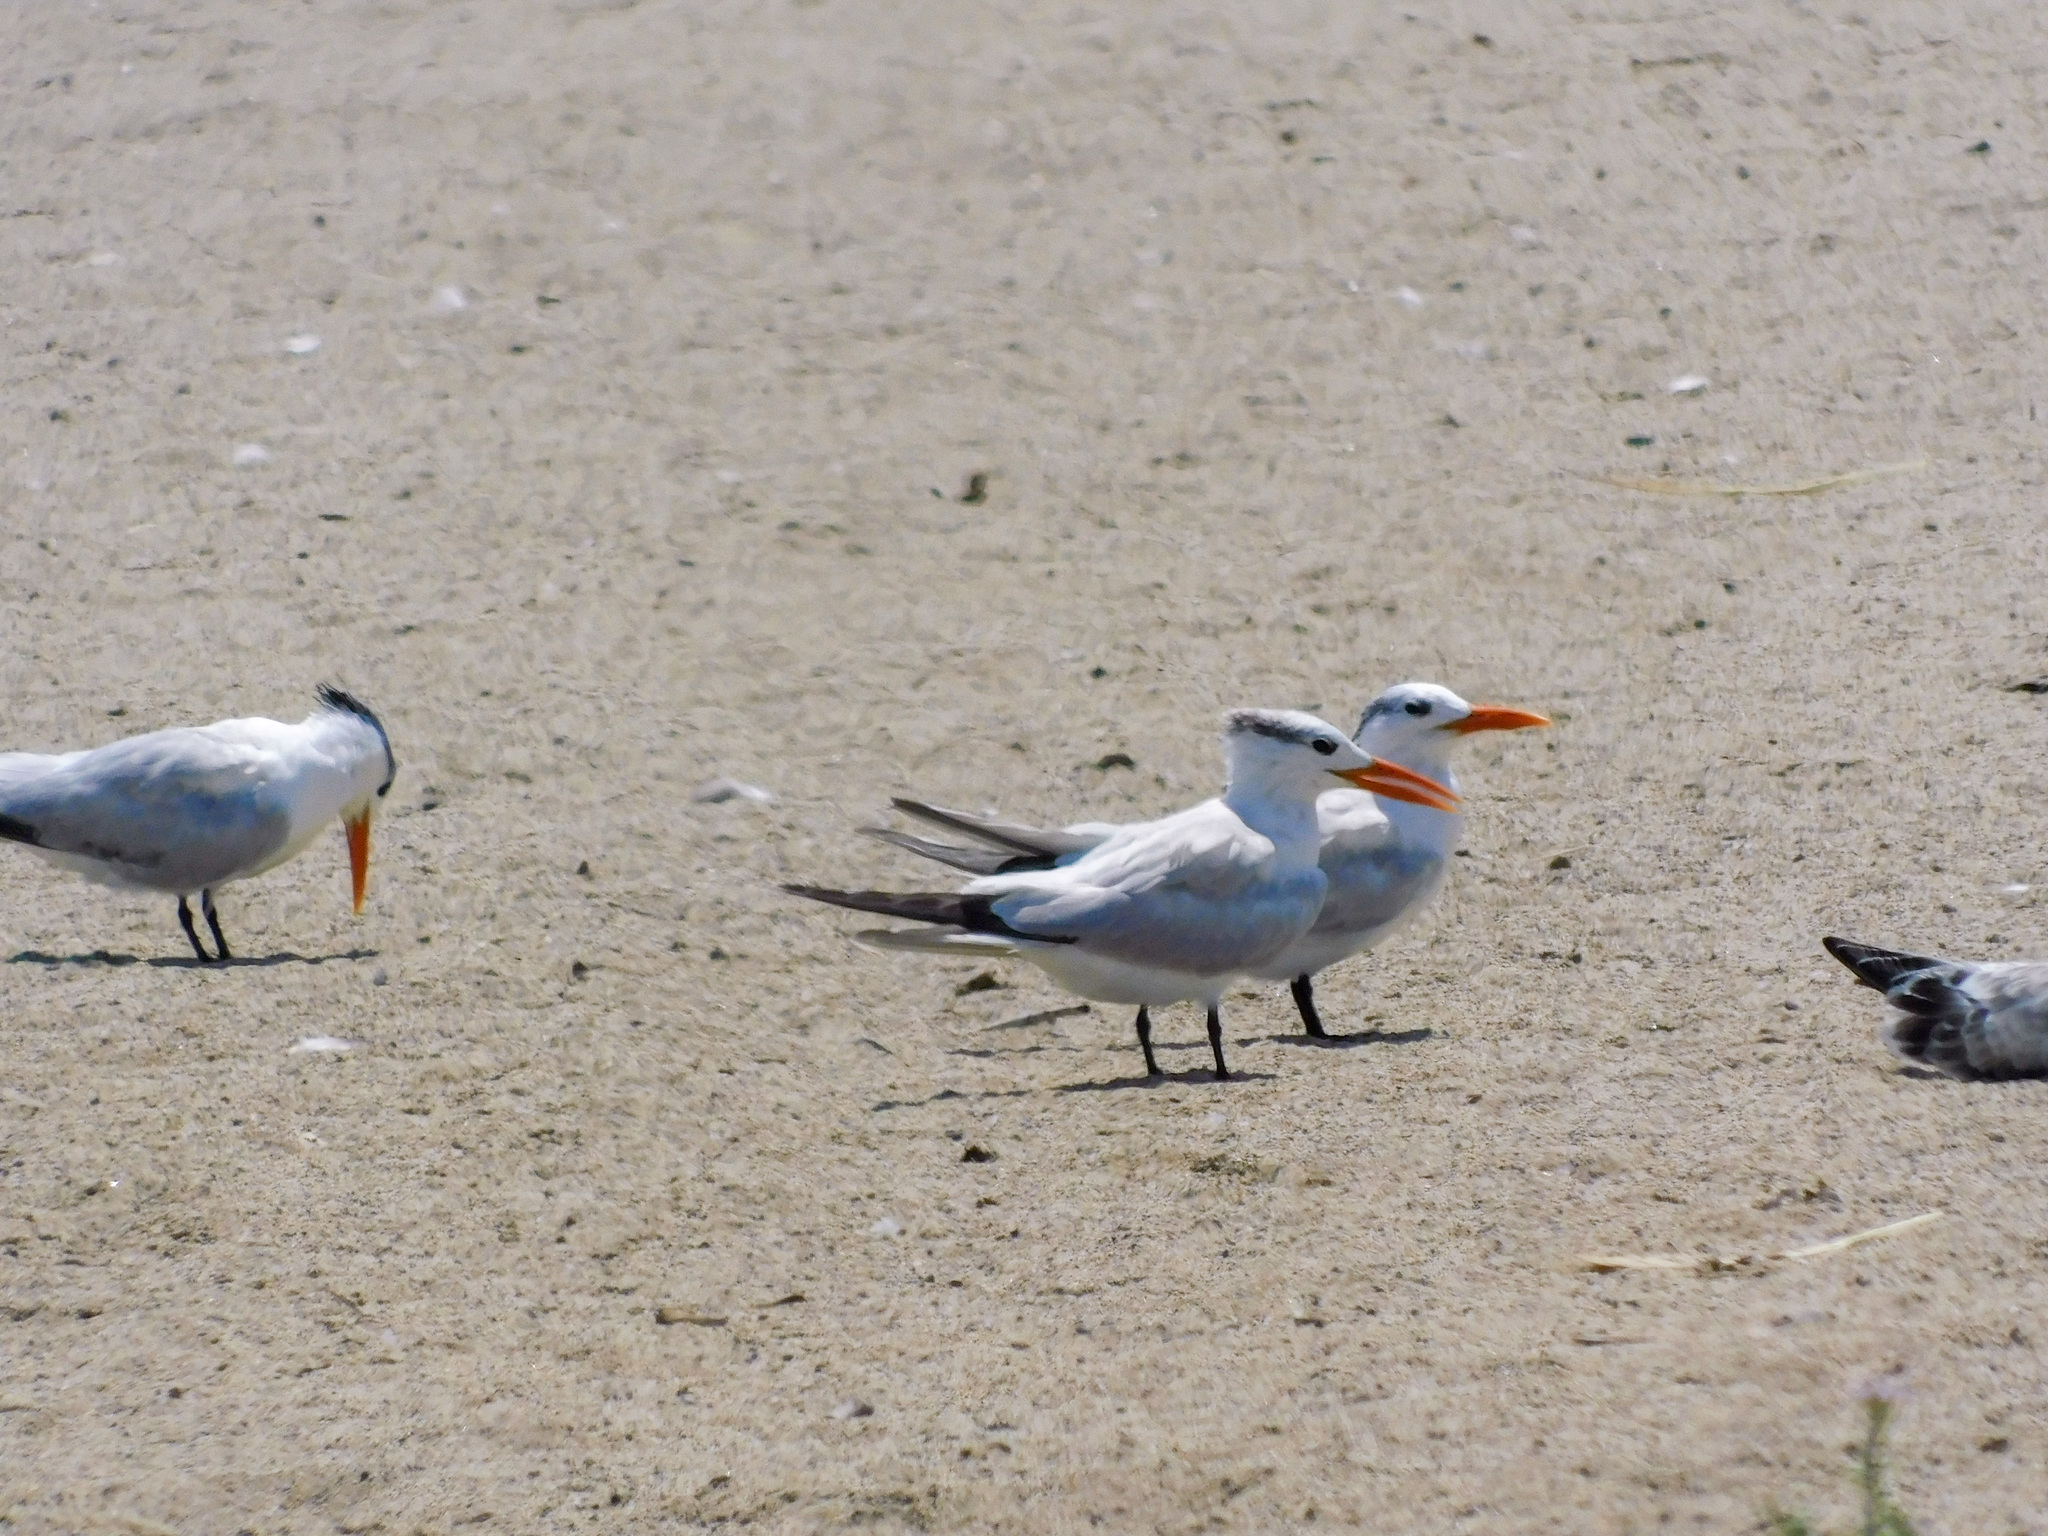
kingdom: Animalia
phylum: Chordata
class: Aves
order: Charadriiformes
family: Laridae
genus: Thalasseus
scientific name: Thalasseus maximus
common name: Royal tern
